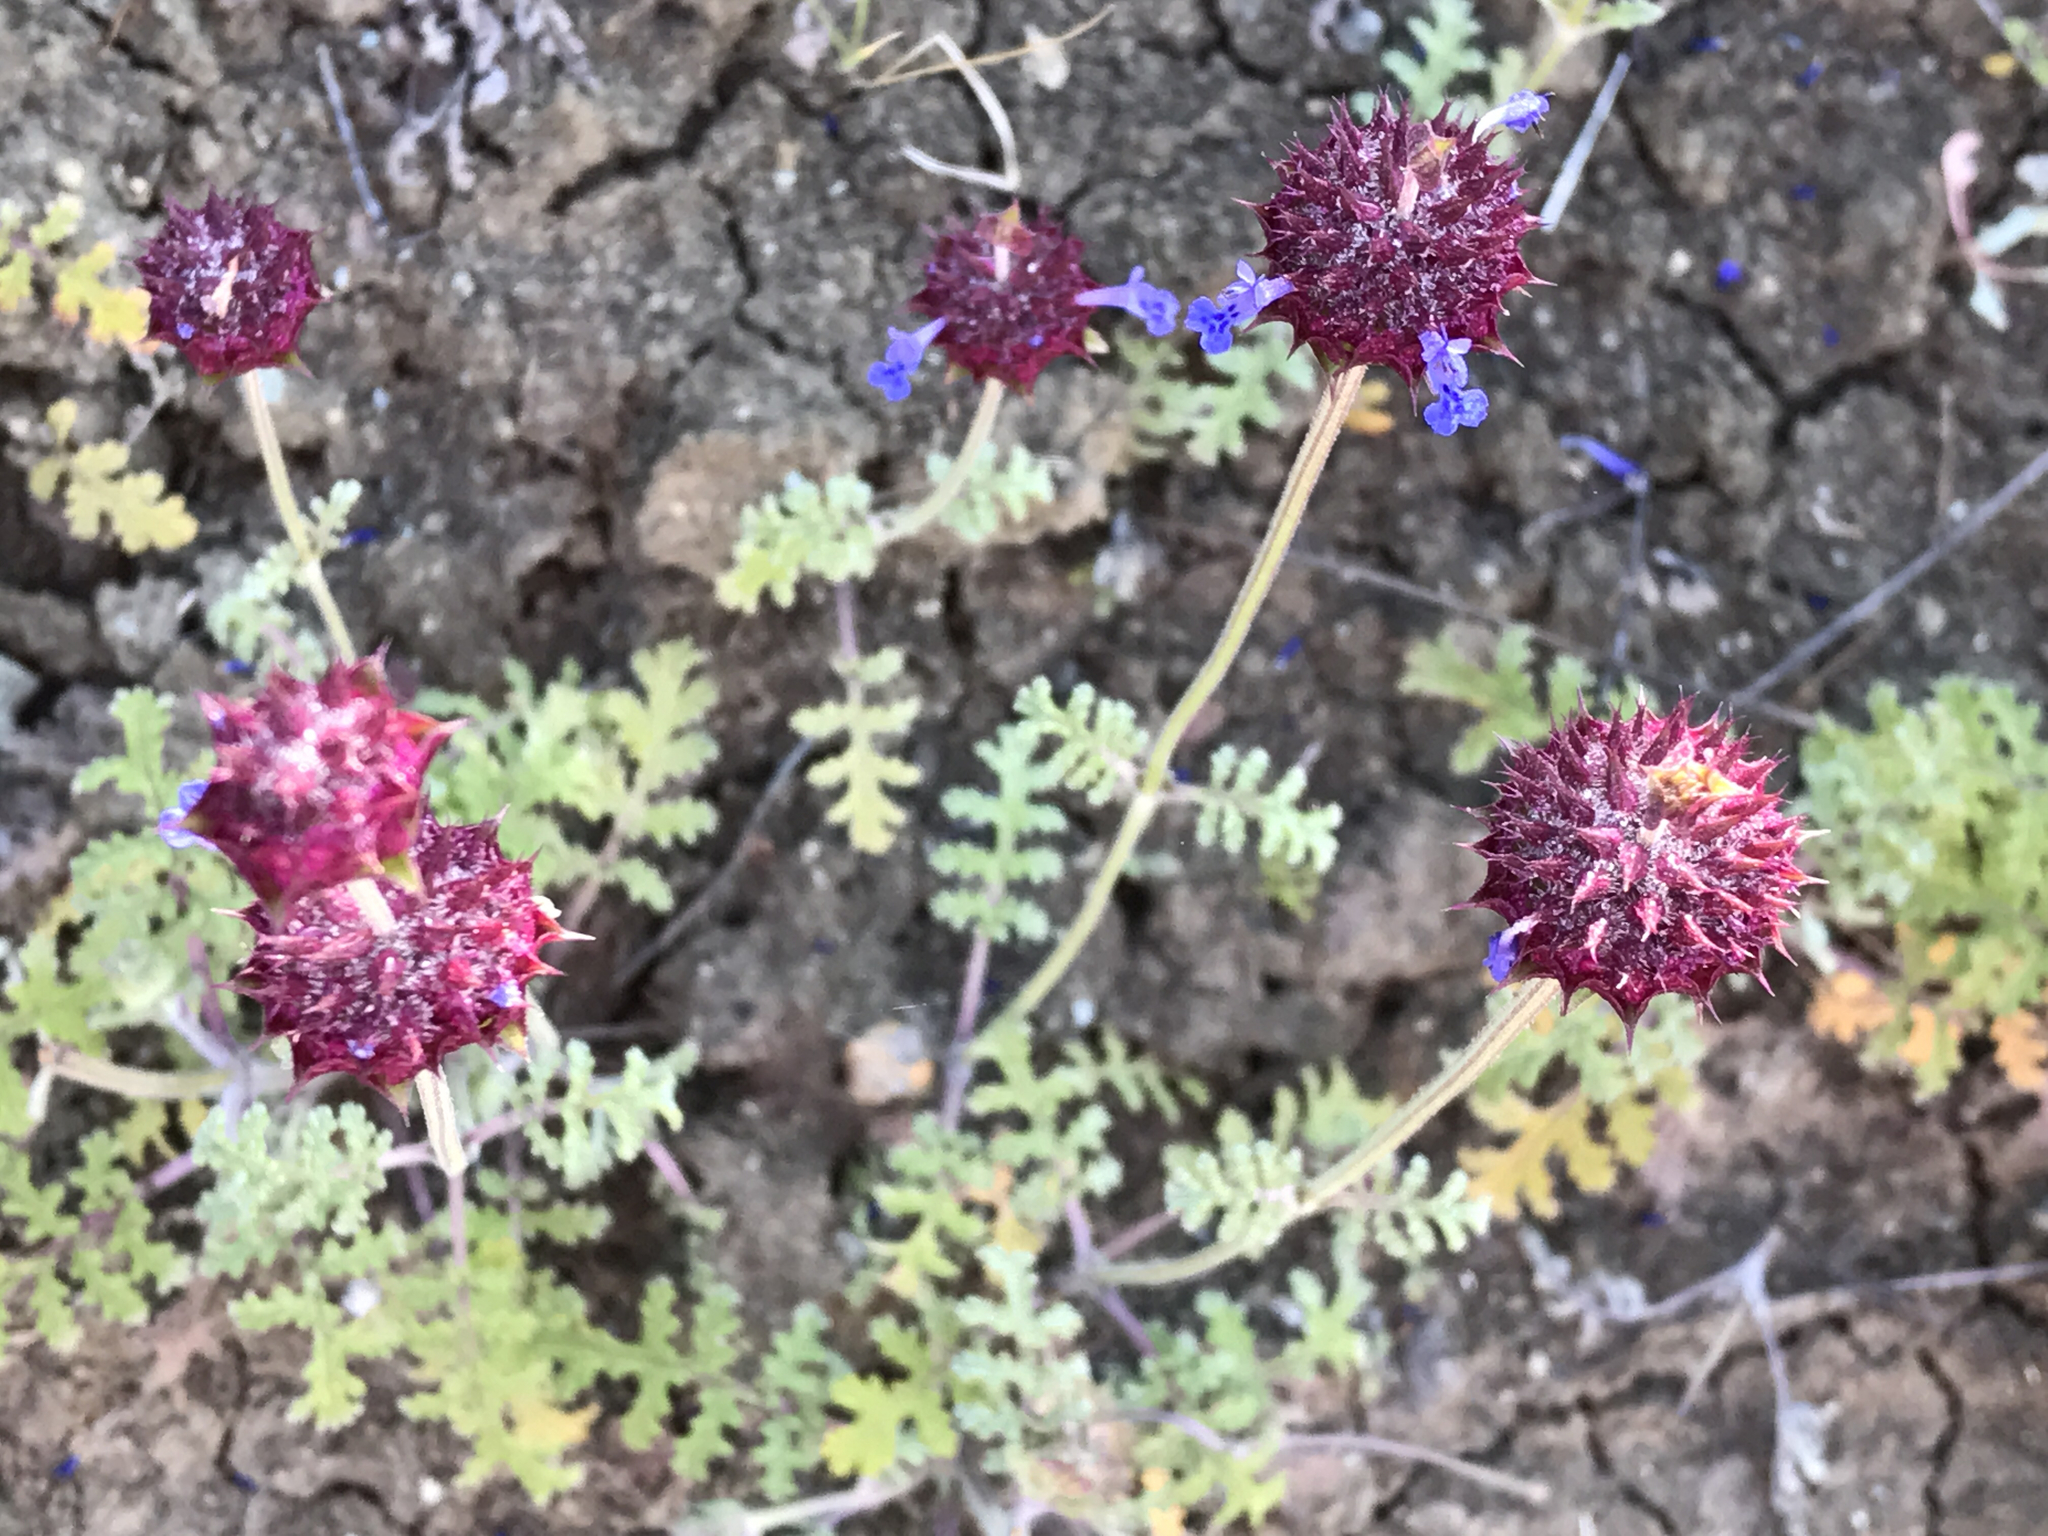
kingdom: Plantae
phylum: Tracheophyta
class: Magnoliopsida
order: Lamiales
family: Lamiaceae
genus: Salvia
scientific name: Salvia columbariae
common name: Chia
